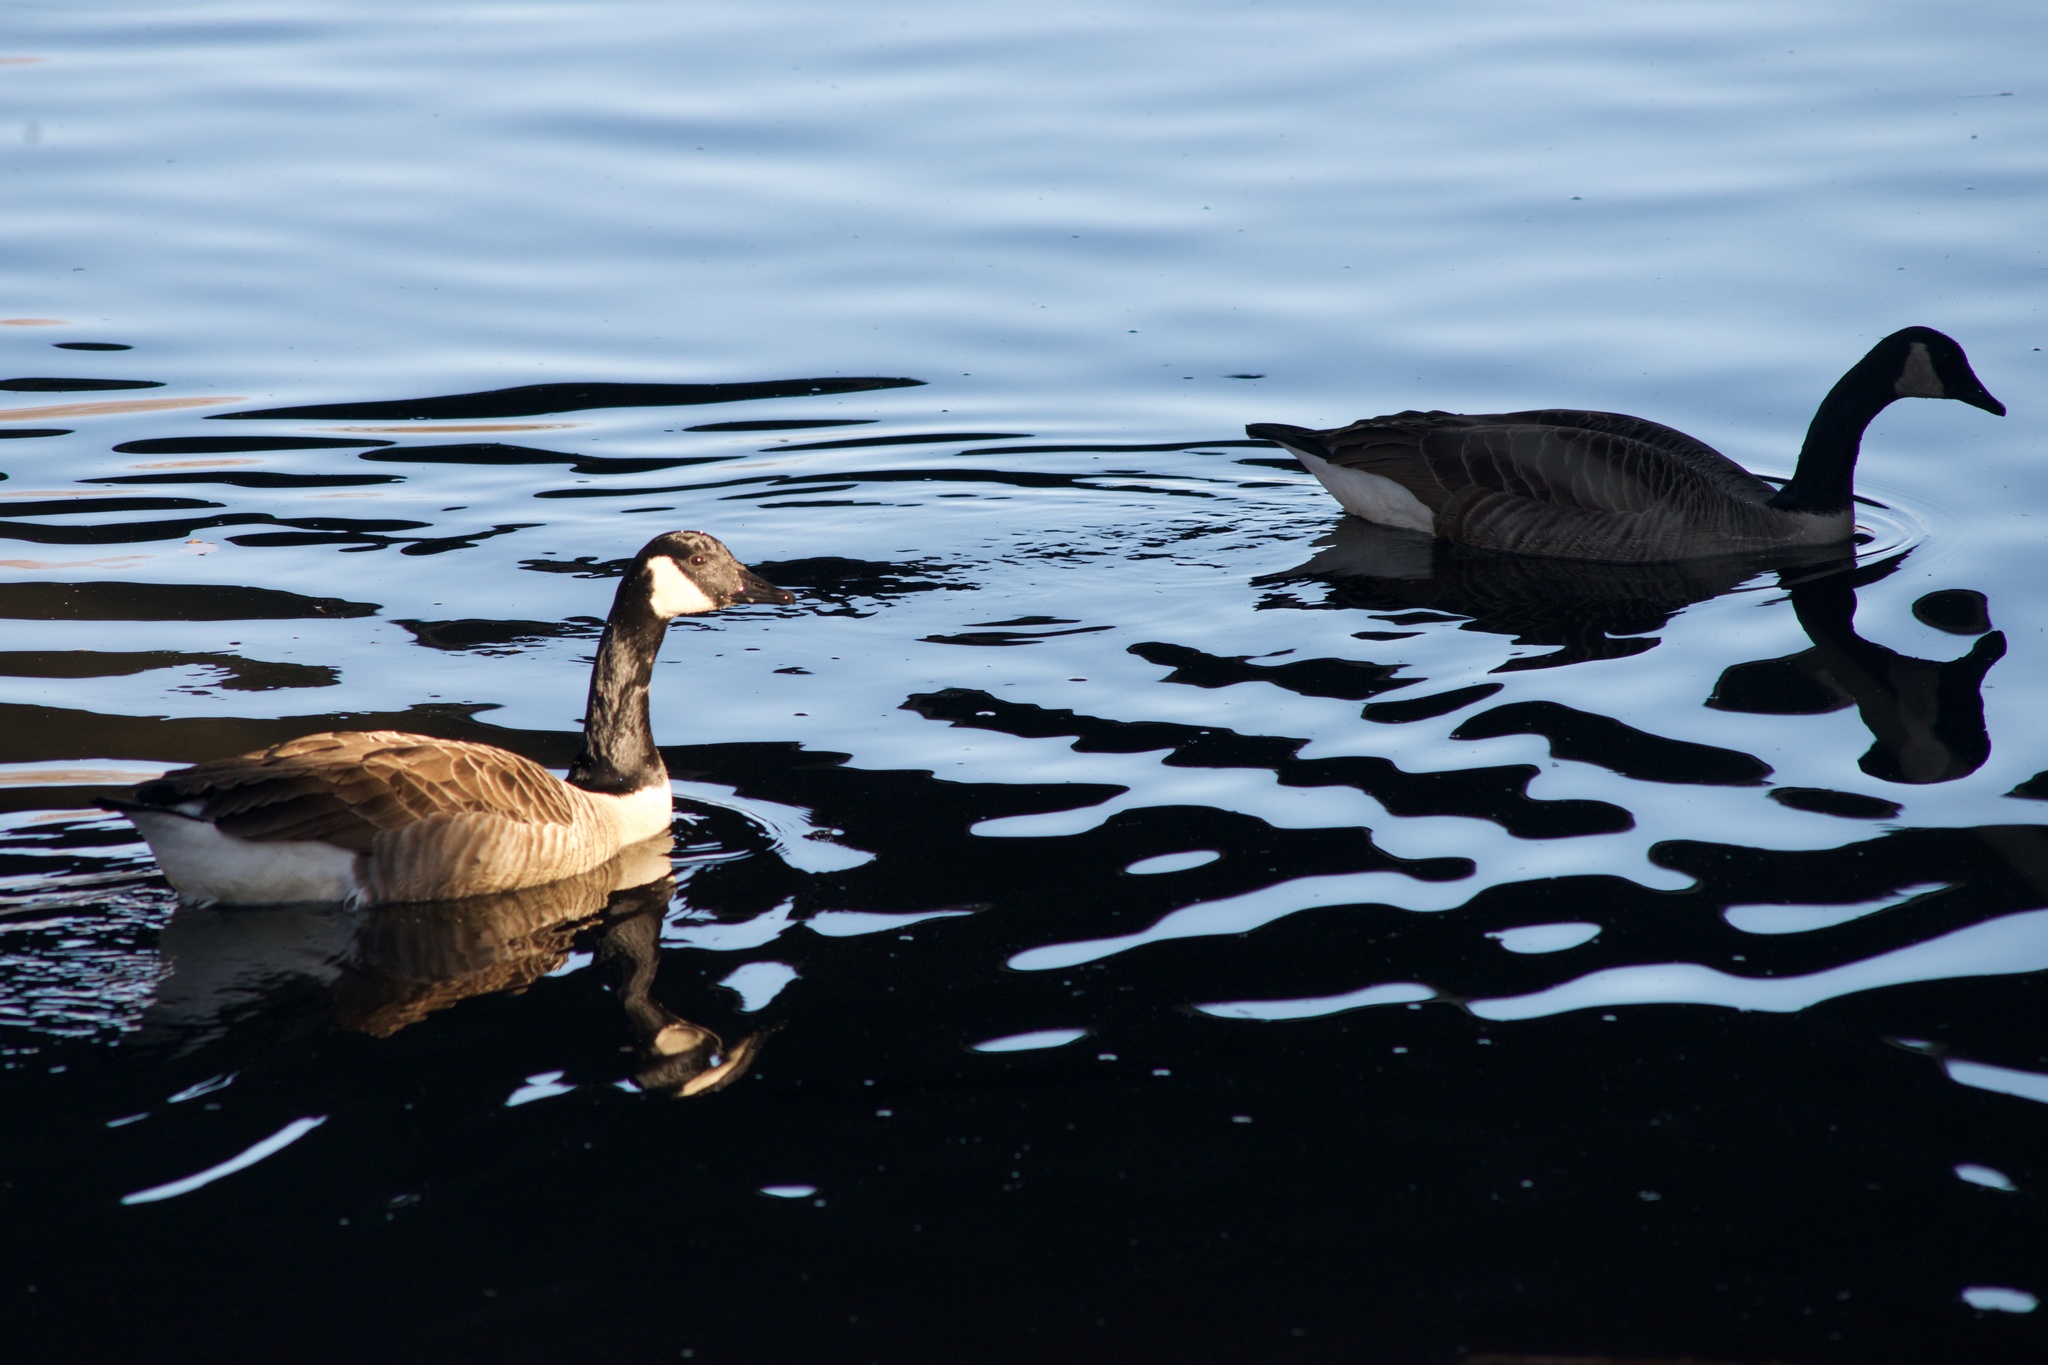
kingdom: Animalia
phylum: Chordata
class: Aves
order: Anseriformes
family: Anatidae
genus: Branta
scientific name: Branta canadensis
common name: Canada goose
